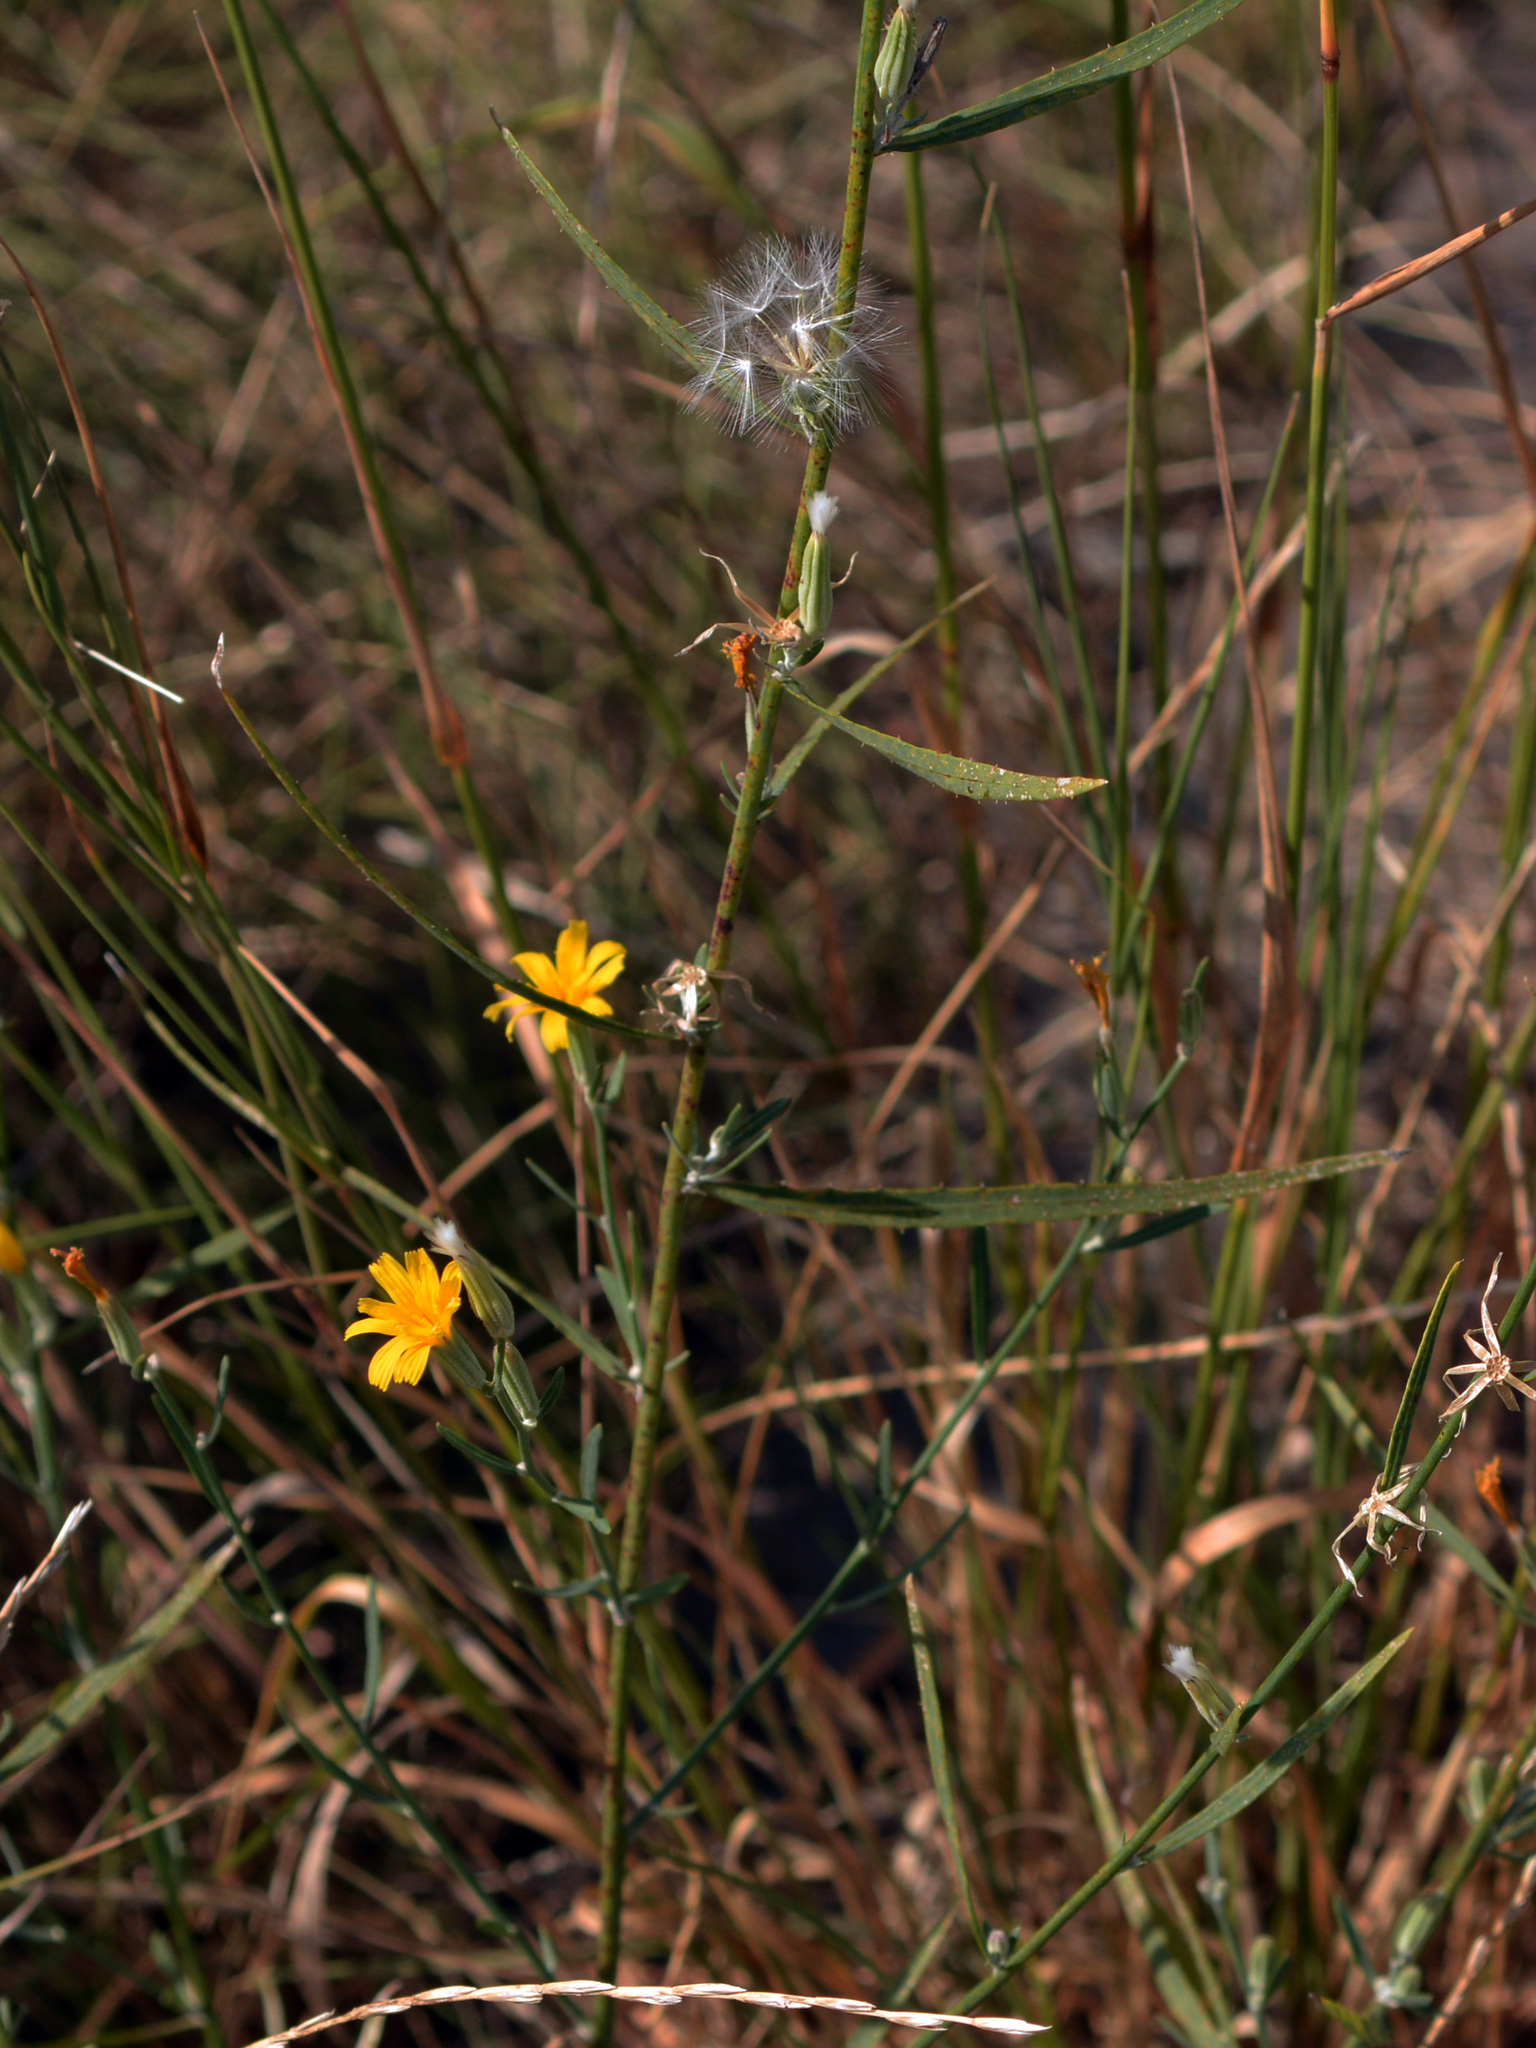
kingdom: Plantae
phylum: Tracheophyta
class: Magnoliopsida
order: Asterales
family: Asteraceae
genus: Chondrilla
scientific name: Chondrilla juncea
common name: Skeleton weed
